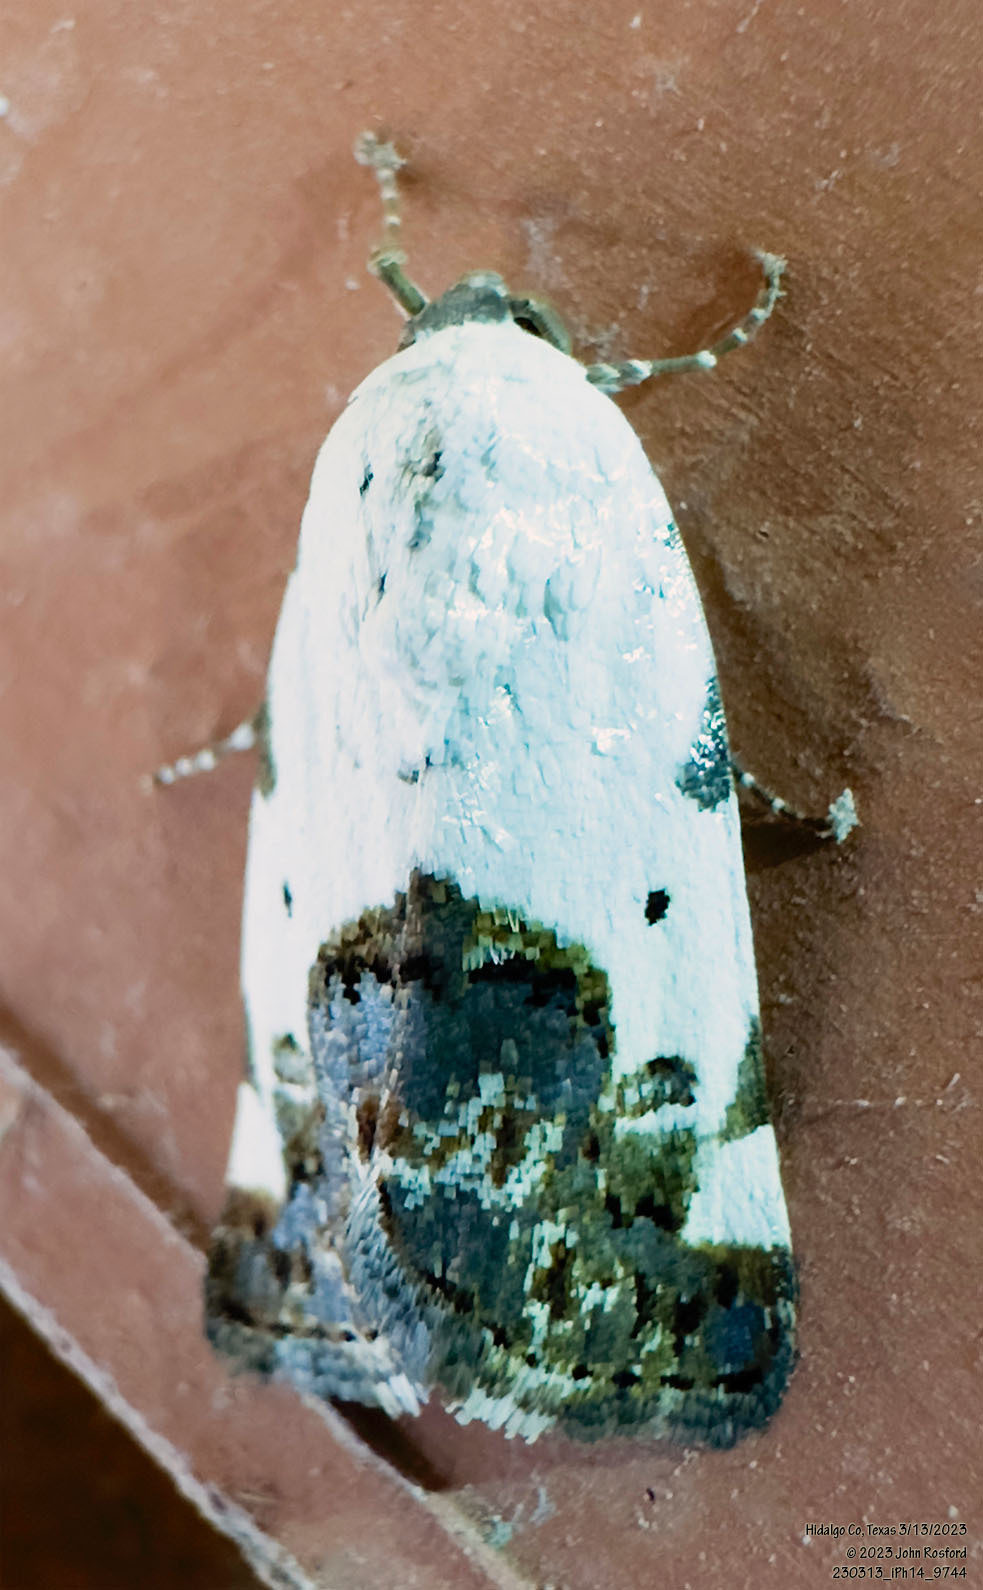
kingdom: Animalia
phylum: Arthropoda
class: Insecta
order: Lepidoptera
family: Noctuidae
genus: Acontia
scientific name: Acontia aprica
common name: Nun
